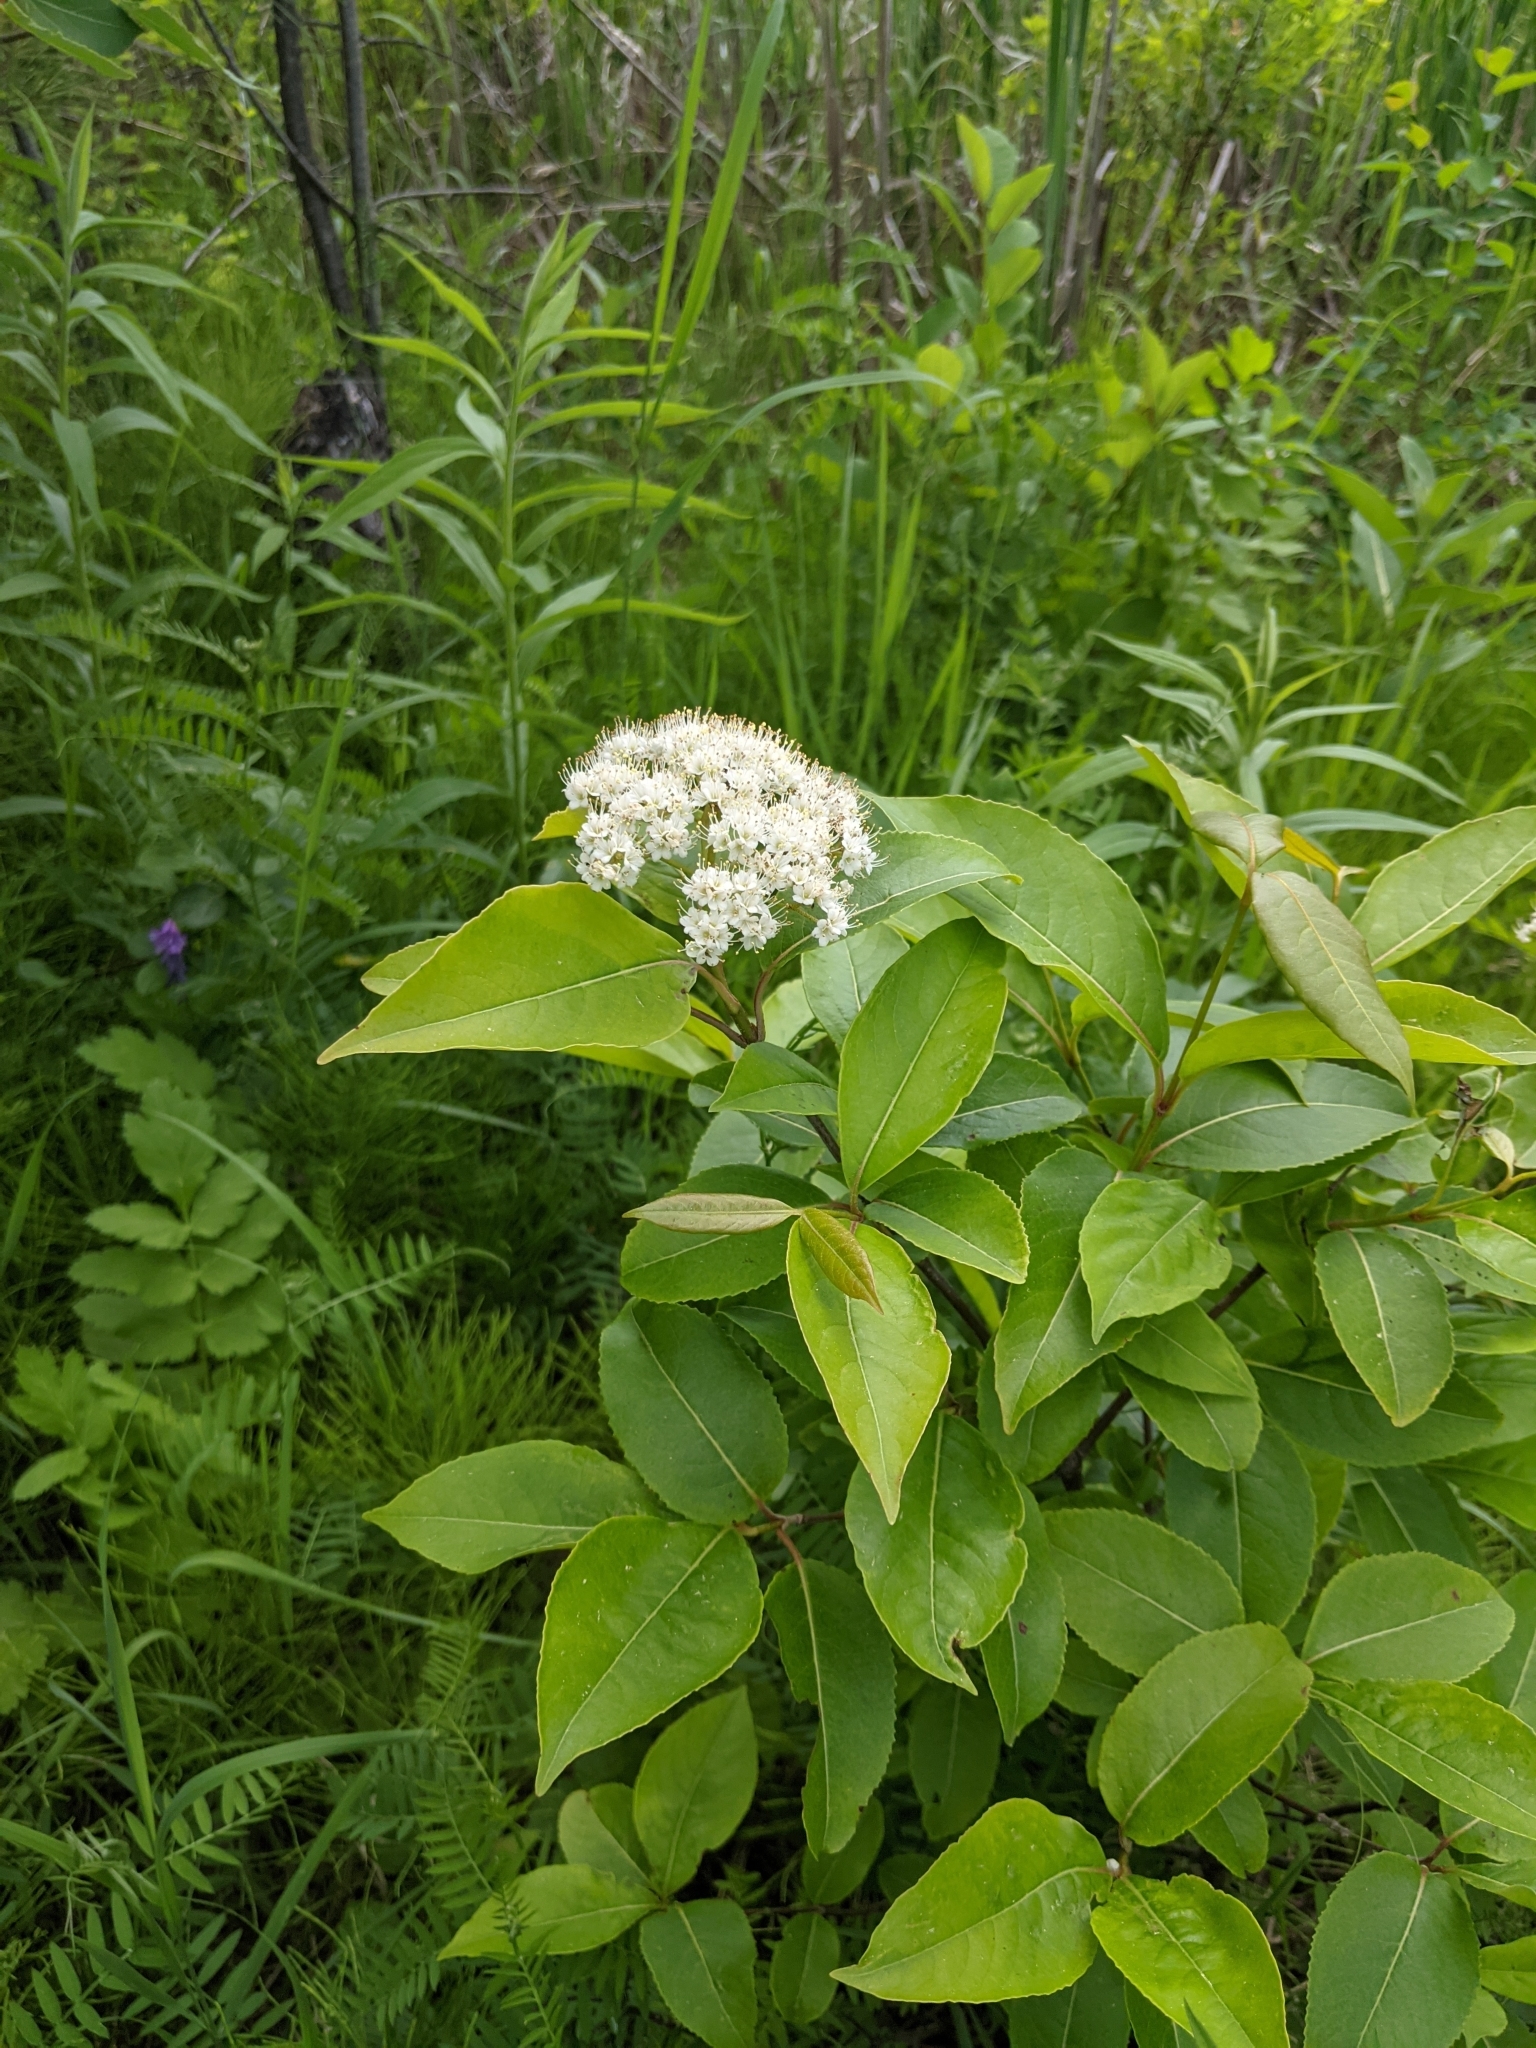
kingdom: Plantae
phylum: Tracheophyta
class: Magnoliopsida
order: Dipsacales
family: Viburnaceae
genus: Viburnum
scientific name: Viburnum cassinoides
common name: Swamp haw
